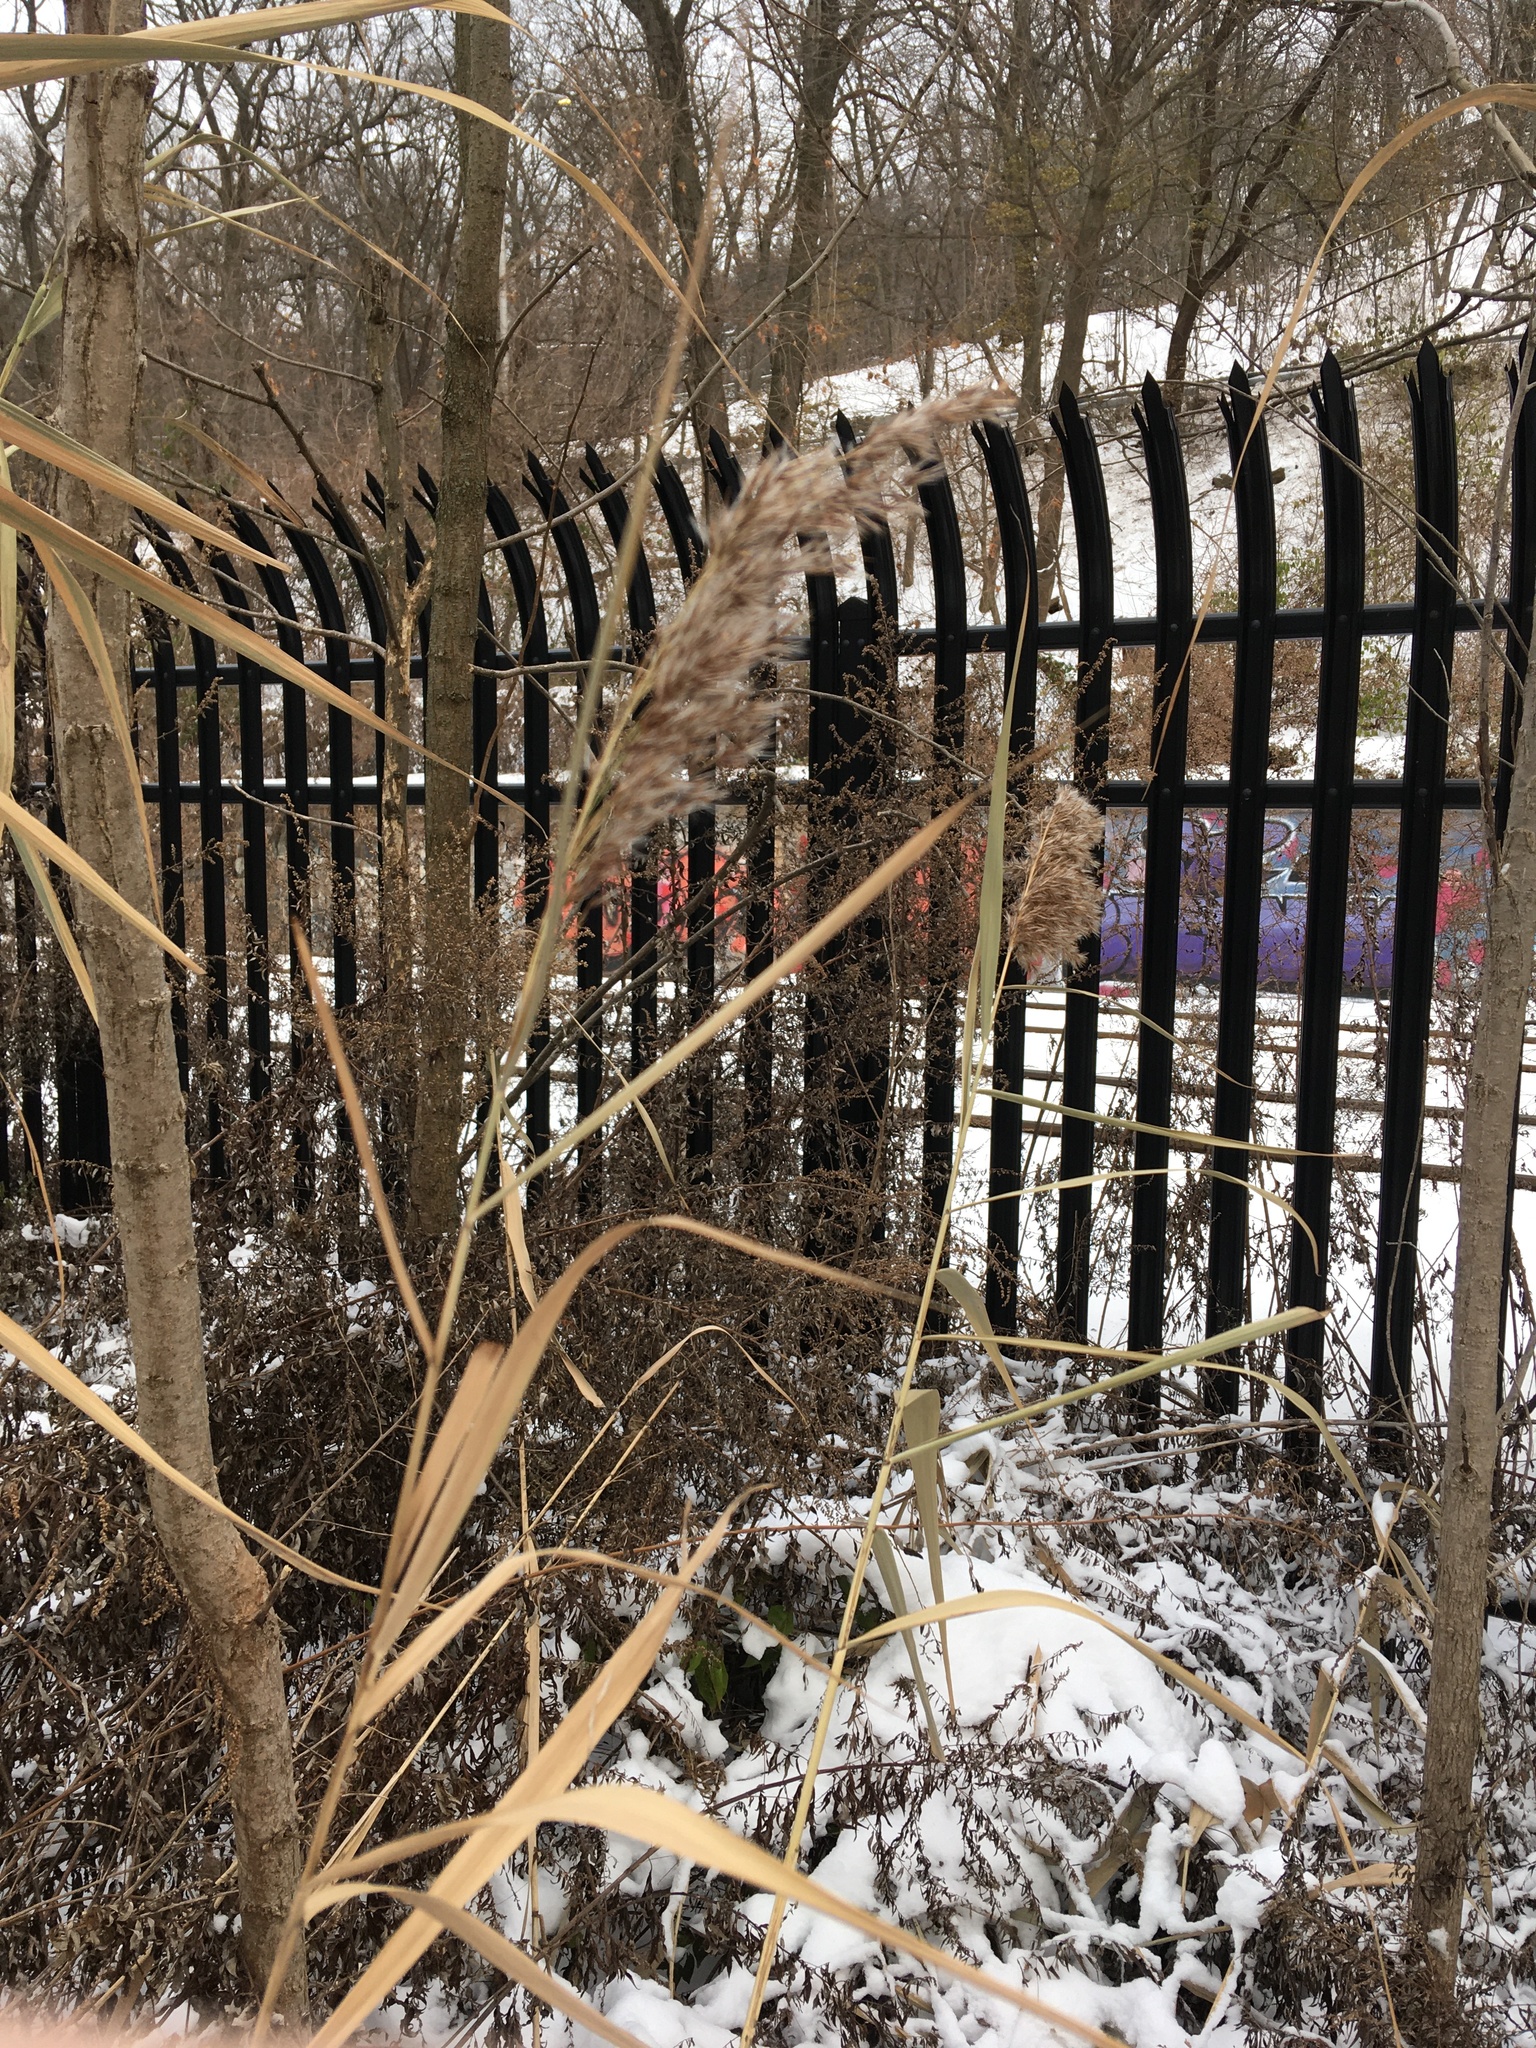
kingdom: Plantae
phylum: Tracheophyta
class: Liliopsida
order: Poales
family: Poaceae
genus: Phragmites
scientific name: Phragmites australis
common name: Common reed
